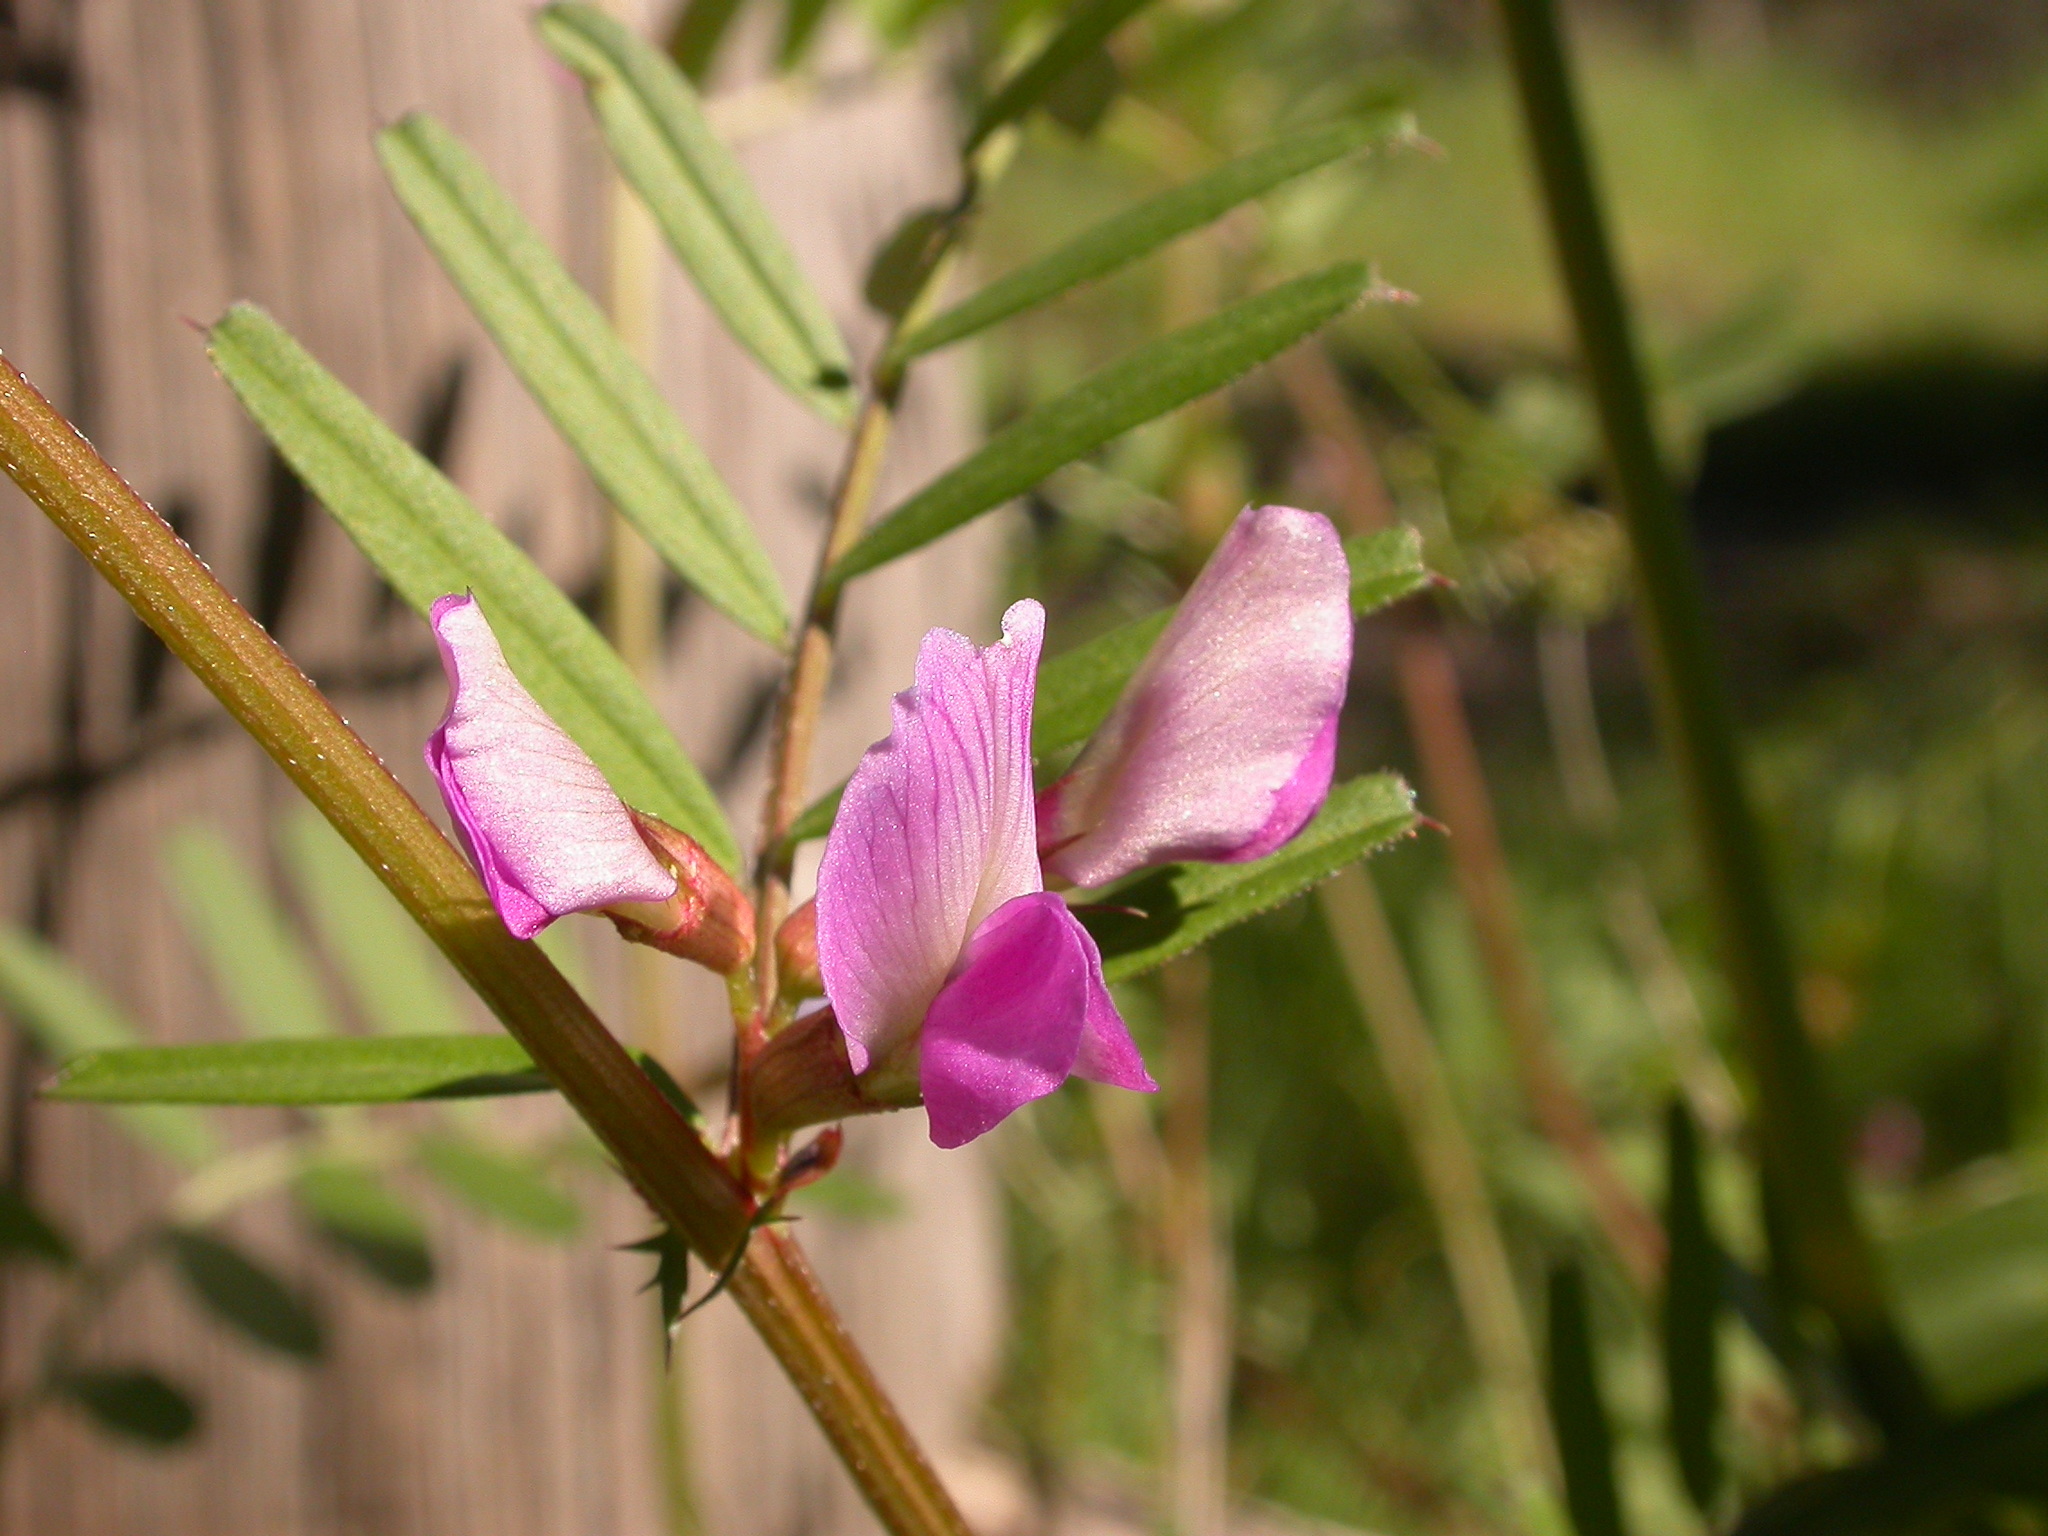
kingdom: Plantae
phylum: Tracheophyta
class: Magnoliopsida
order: Fabales
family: Fabaceae
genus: Vicia
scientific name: Vicia sativa
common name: Garden vetch
